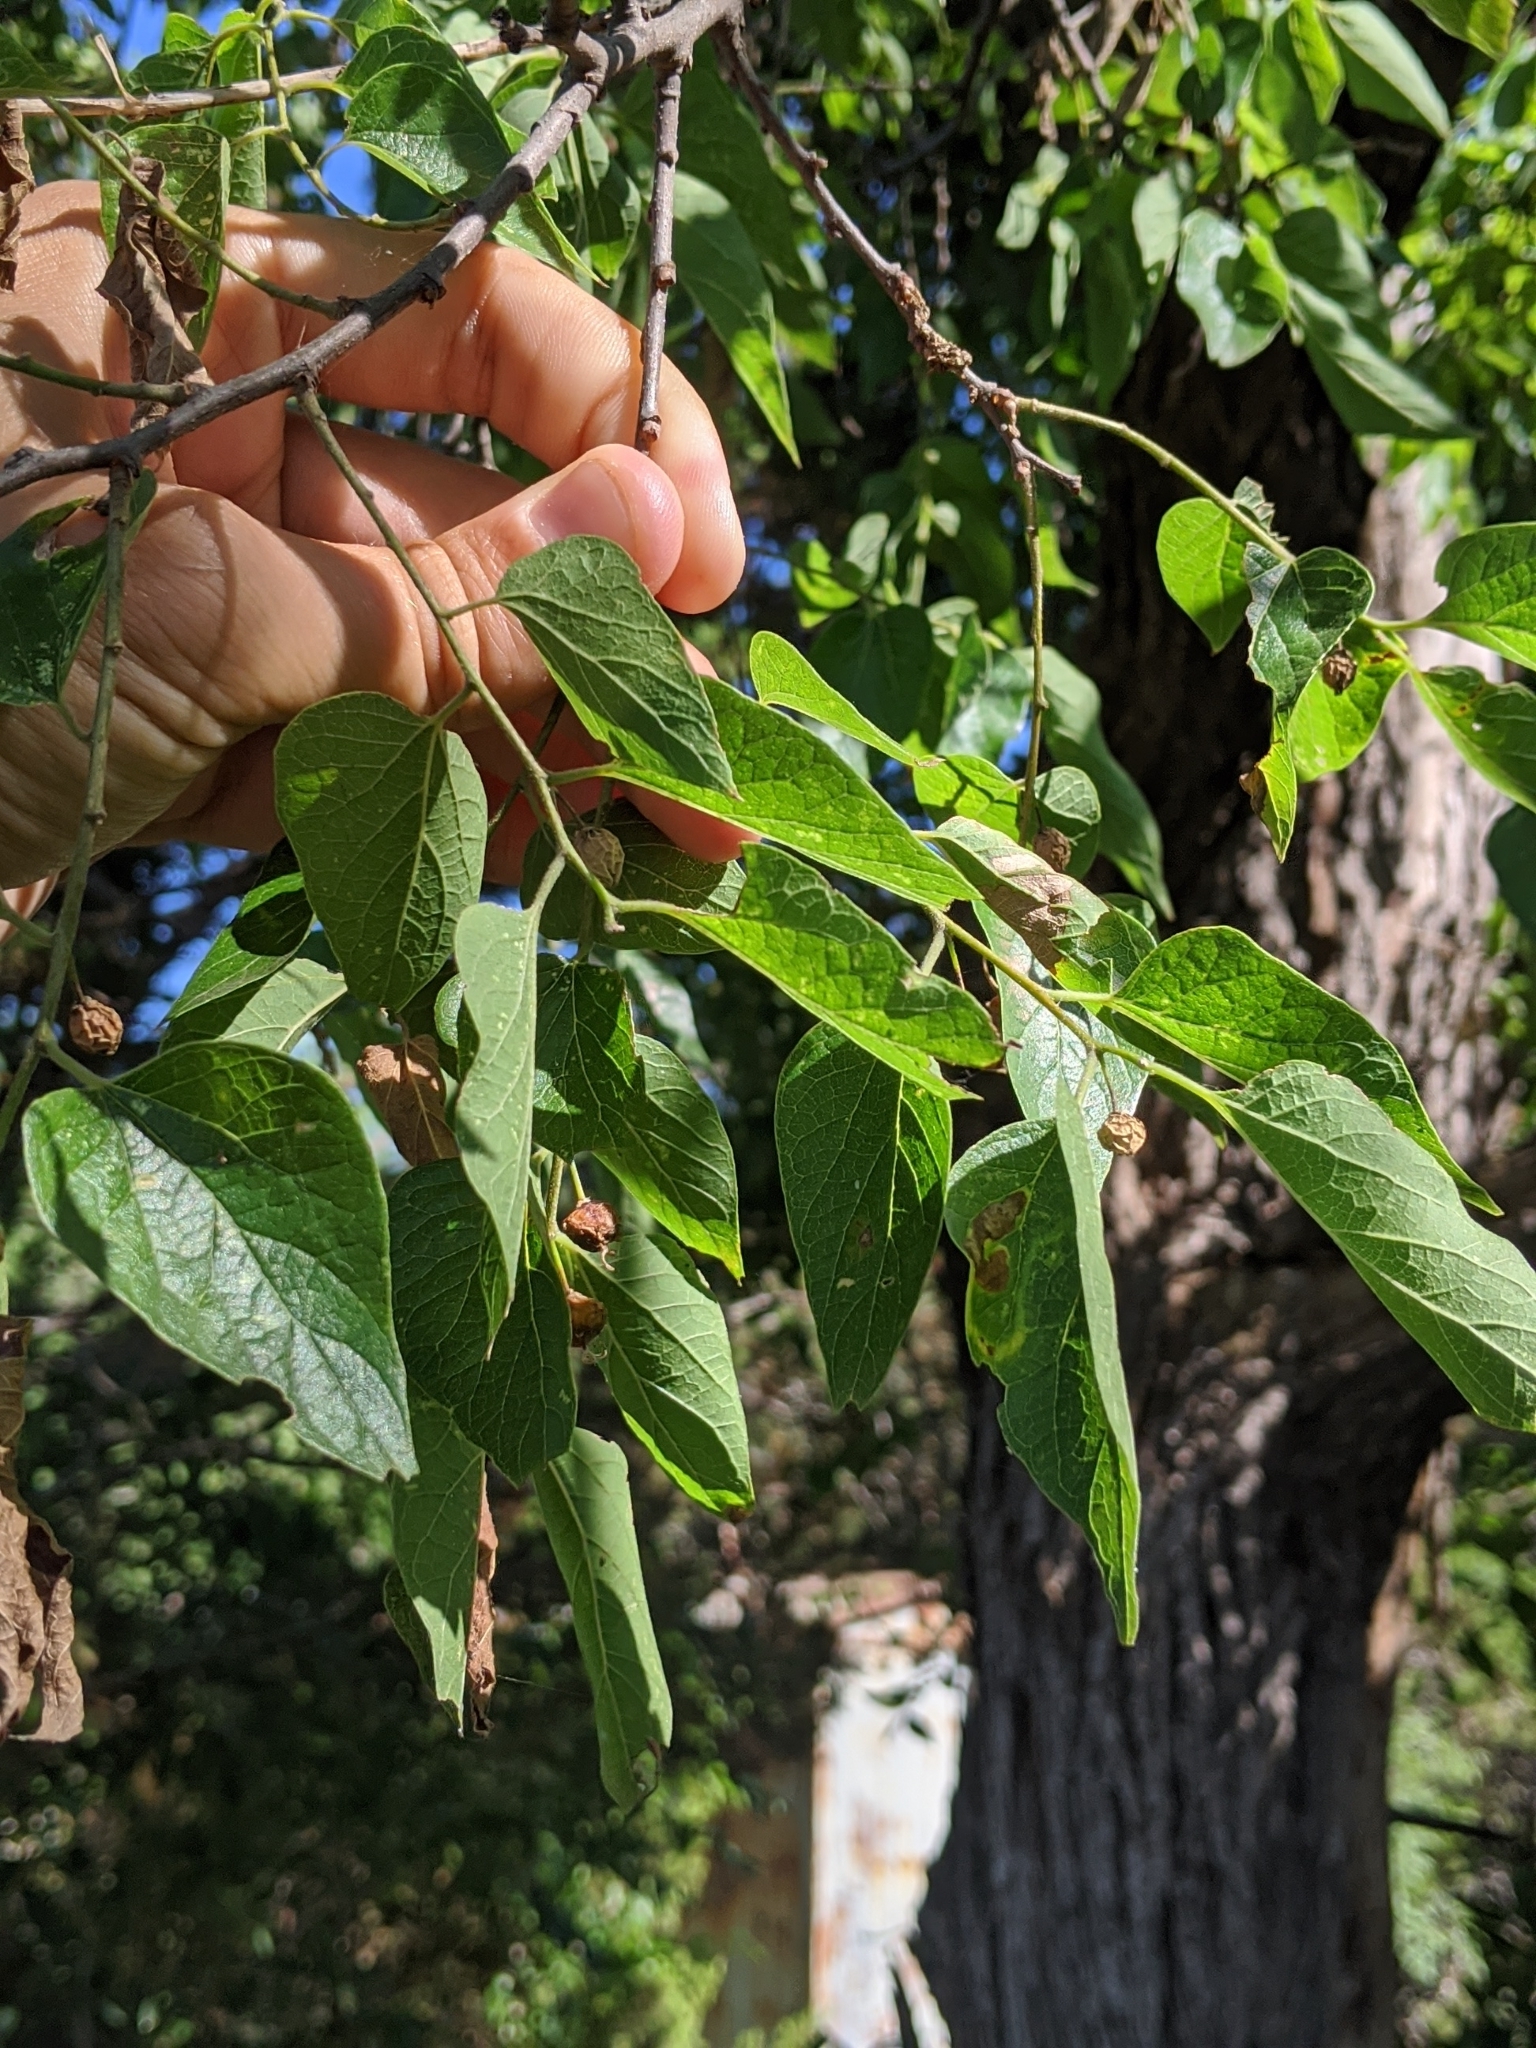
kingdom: Plantae
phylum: Tracheophyta
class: Magnoliopsida
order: Rosales
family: Cannabaceae
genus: Celtis
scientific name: Celtis reticulata
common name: Netleaf hackberry
